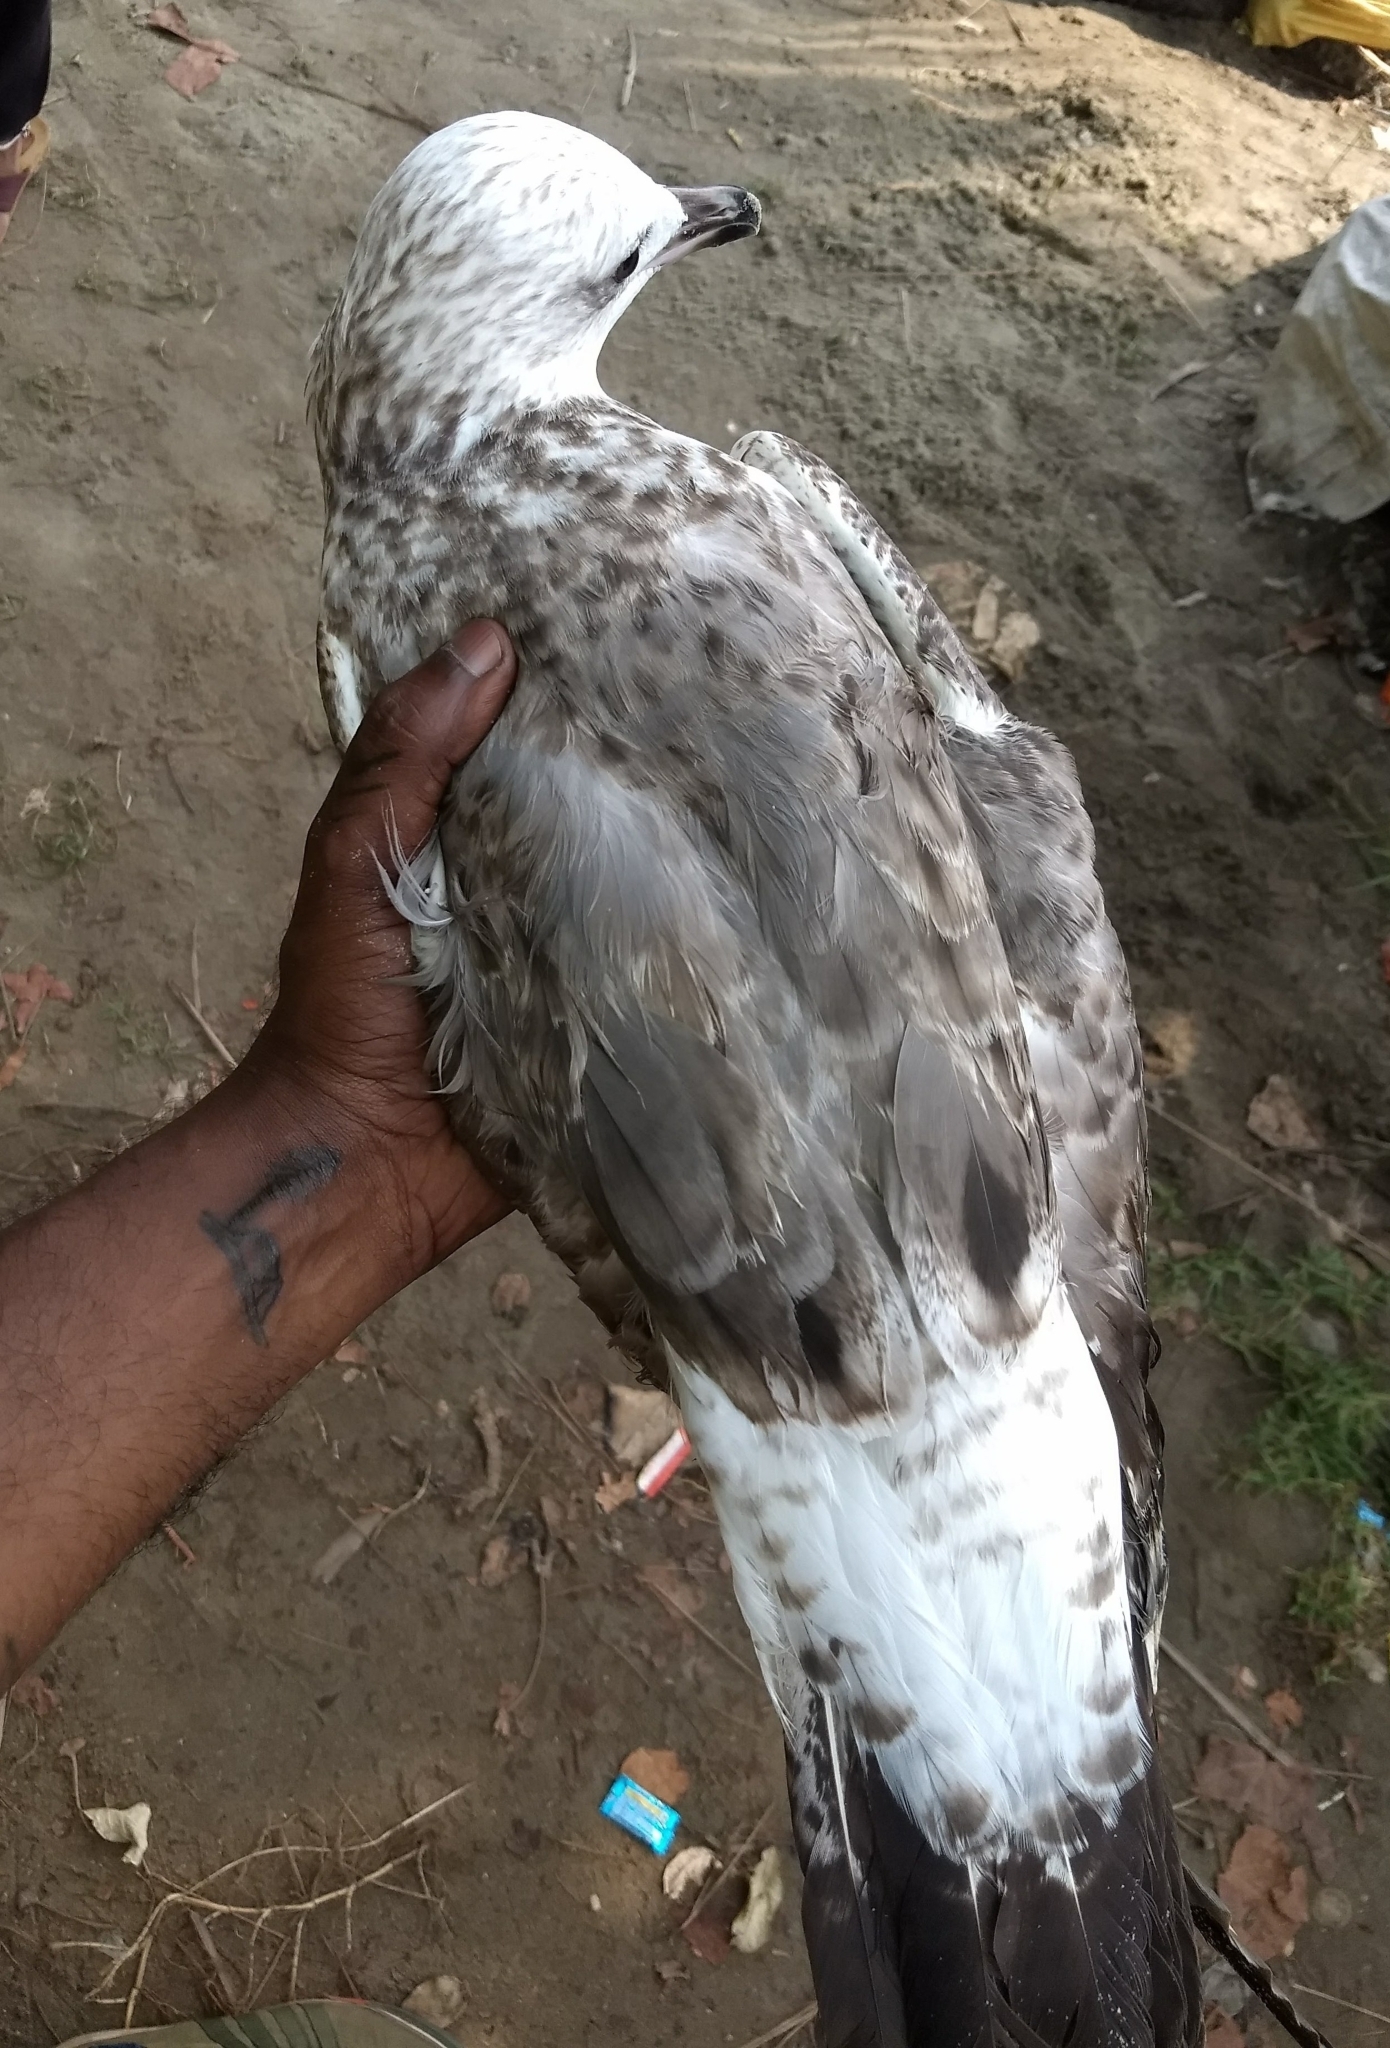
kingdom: Animalia
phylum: Chordata
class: Aves
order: Charadriiformes
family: Laridae
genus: Larus
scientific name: Larus fuscus
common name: Lesser black-backed gull
